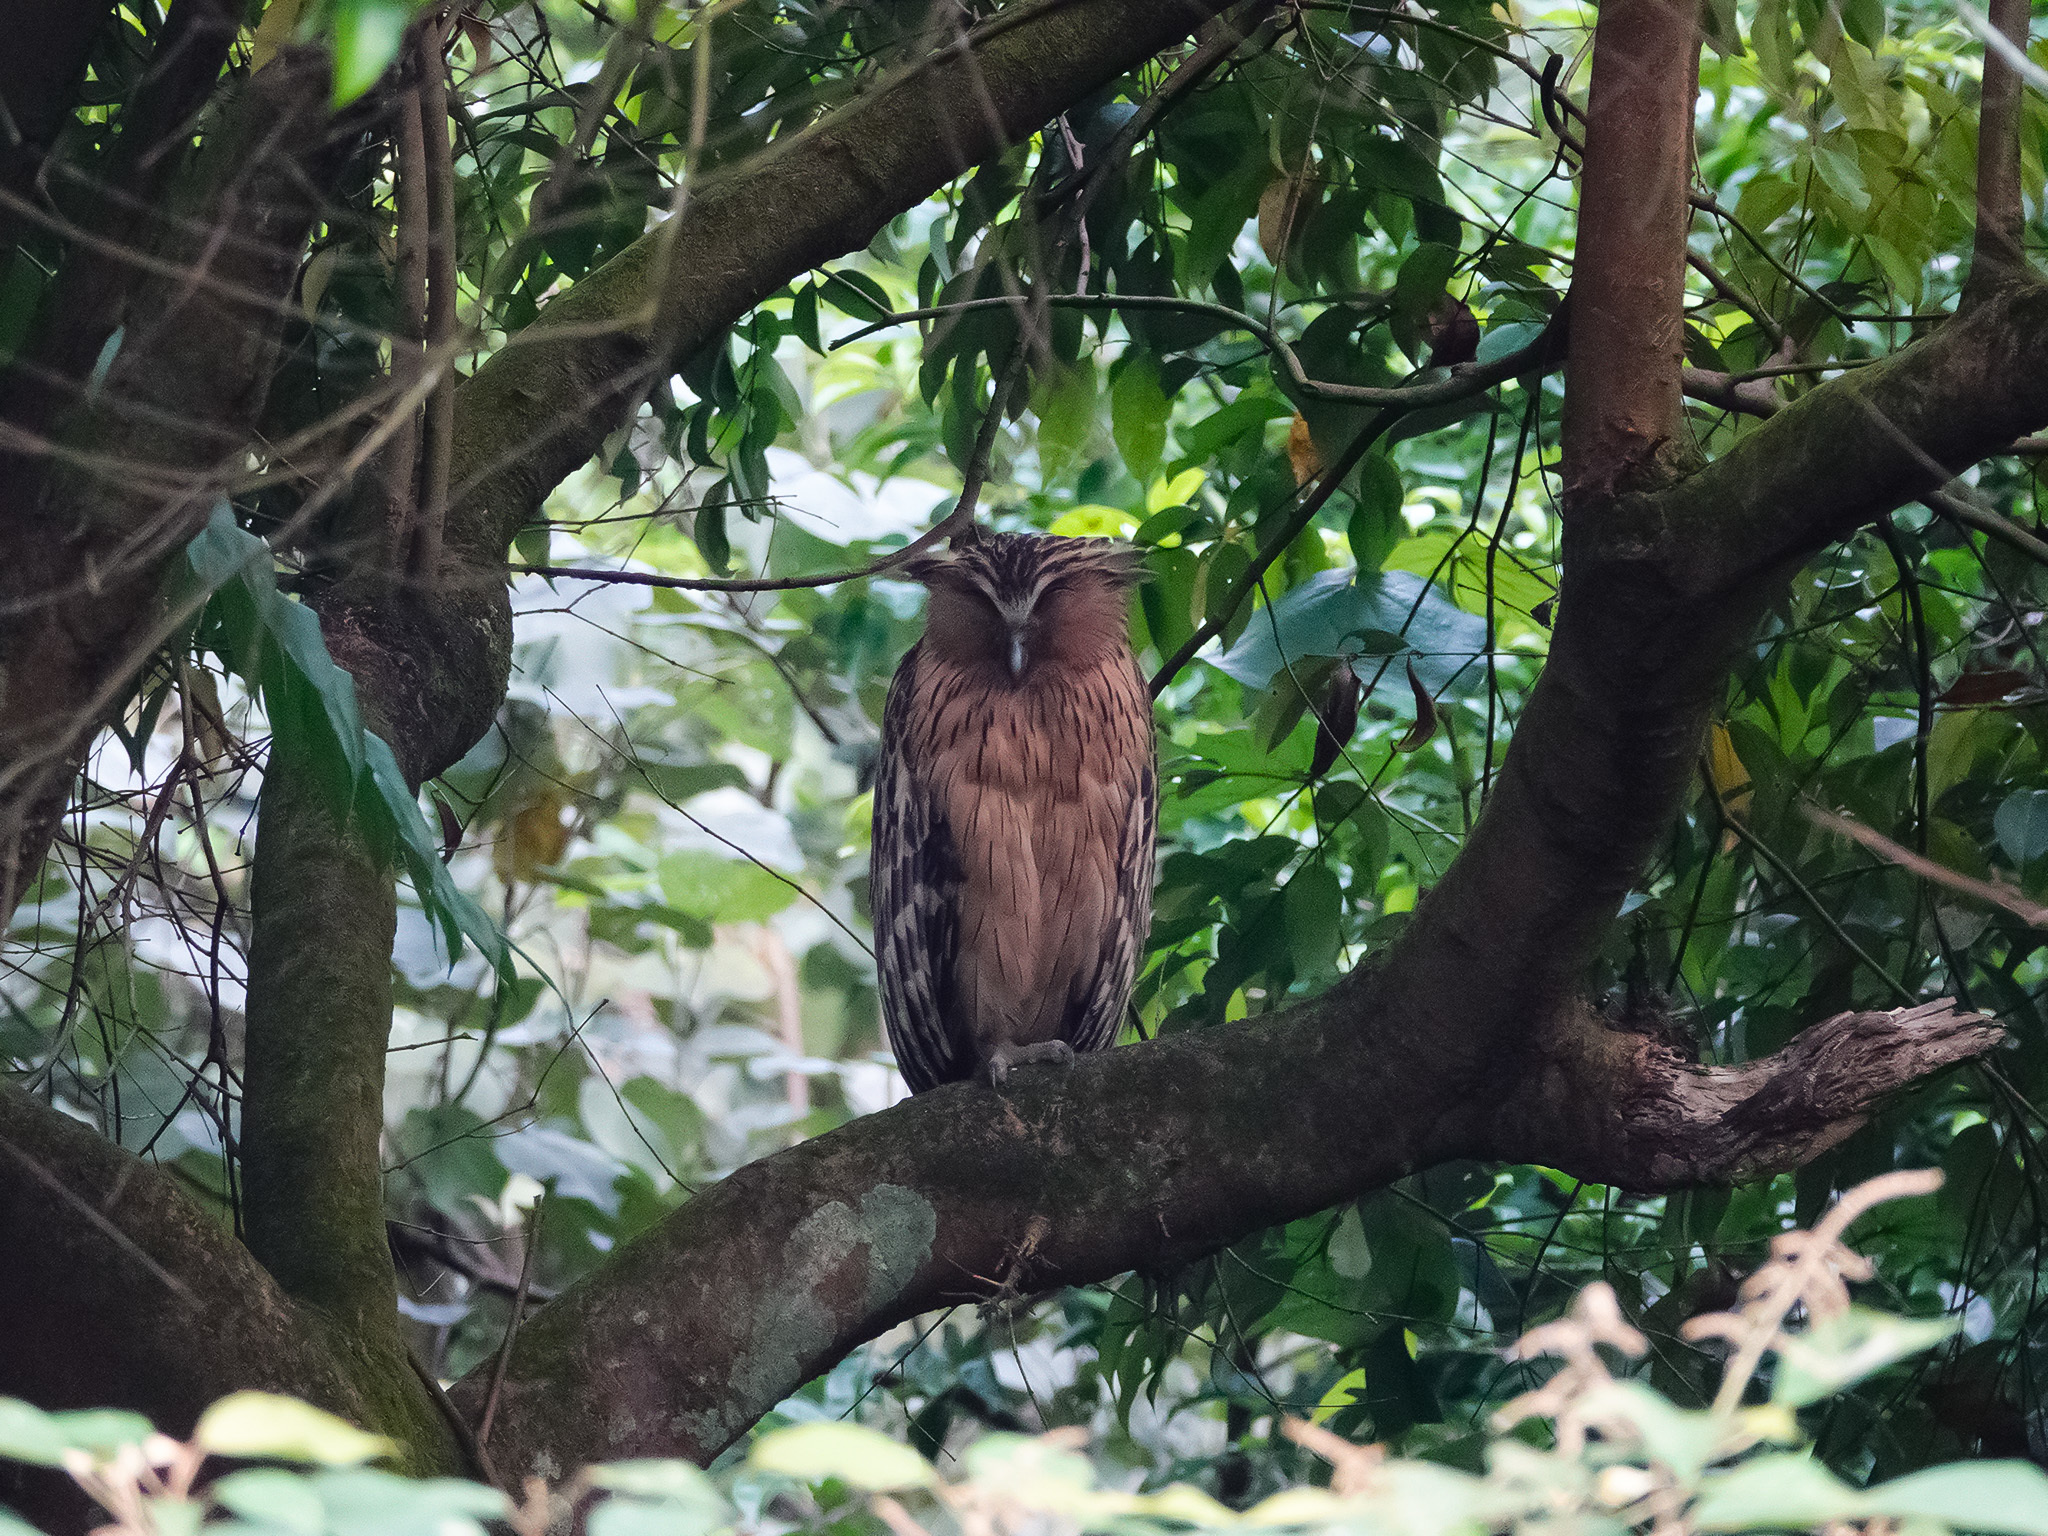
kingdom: Animalia
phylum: Chordata
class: Aves
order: Strigiformes
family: Strigidae
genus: Ketupa
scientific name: Ketupa ketupu
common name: Buffy fish-owl
